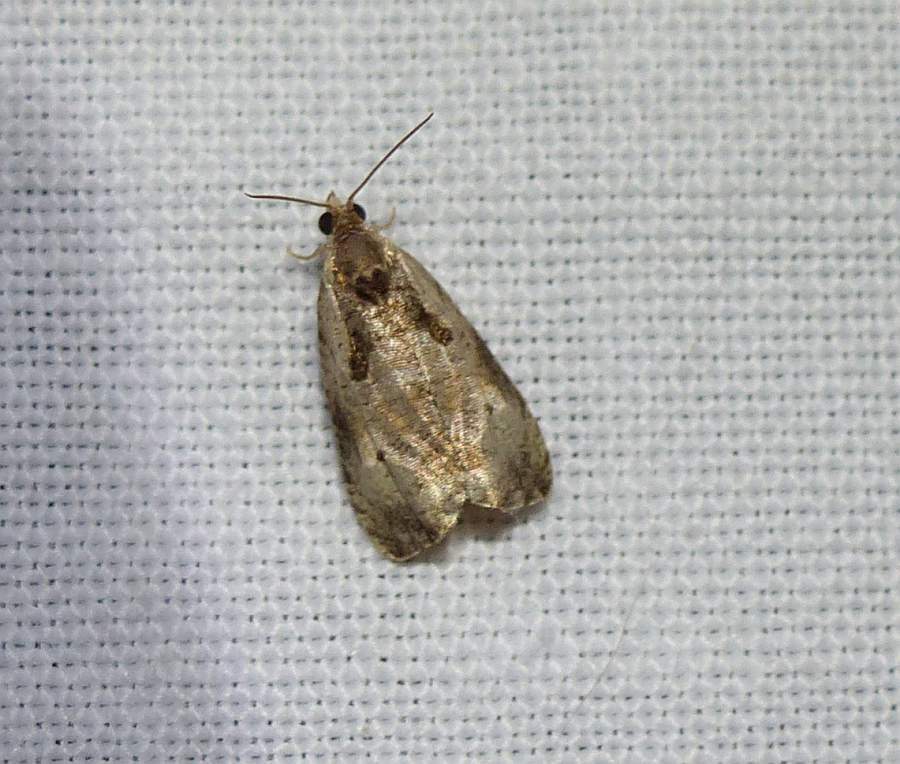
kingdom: Animalia
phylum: Arthropoda
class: Insecta
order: Lepidoptera
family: Tortricidae
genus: Olethreutes
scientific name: Olethreutes punctanum
